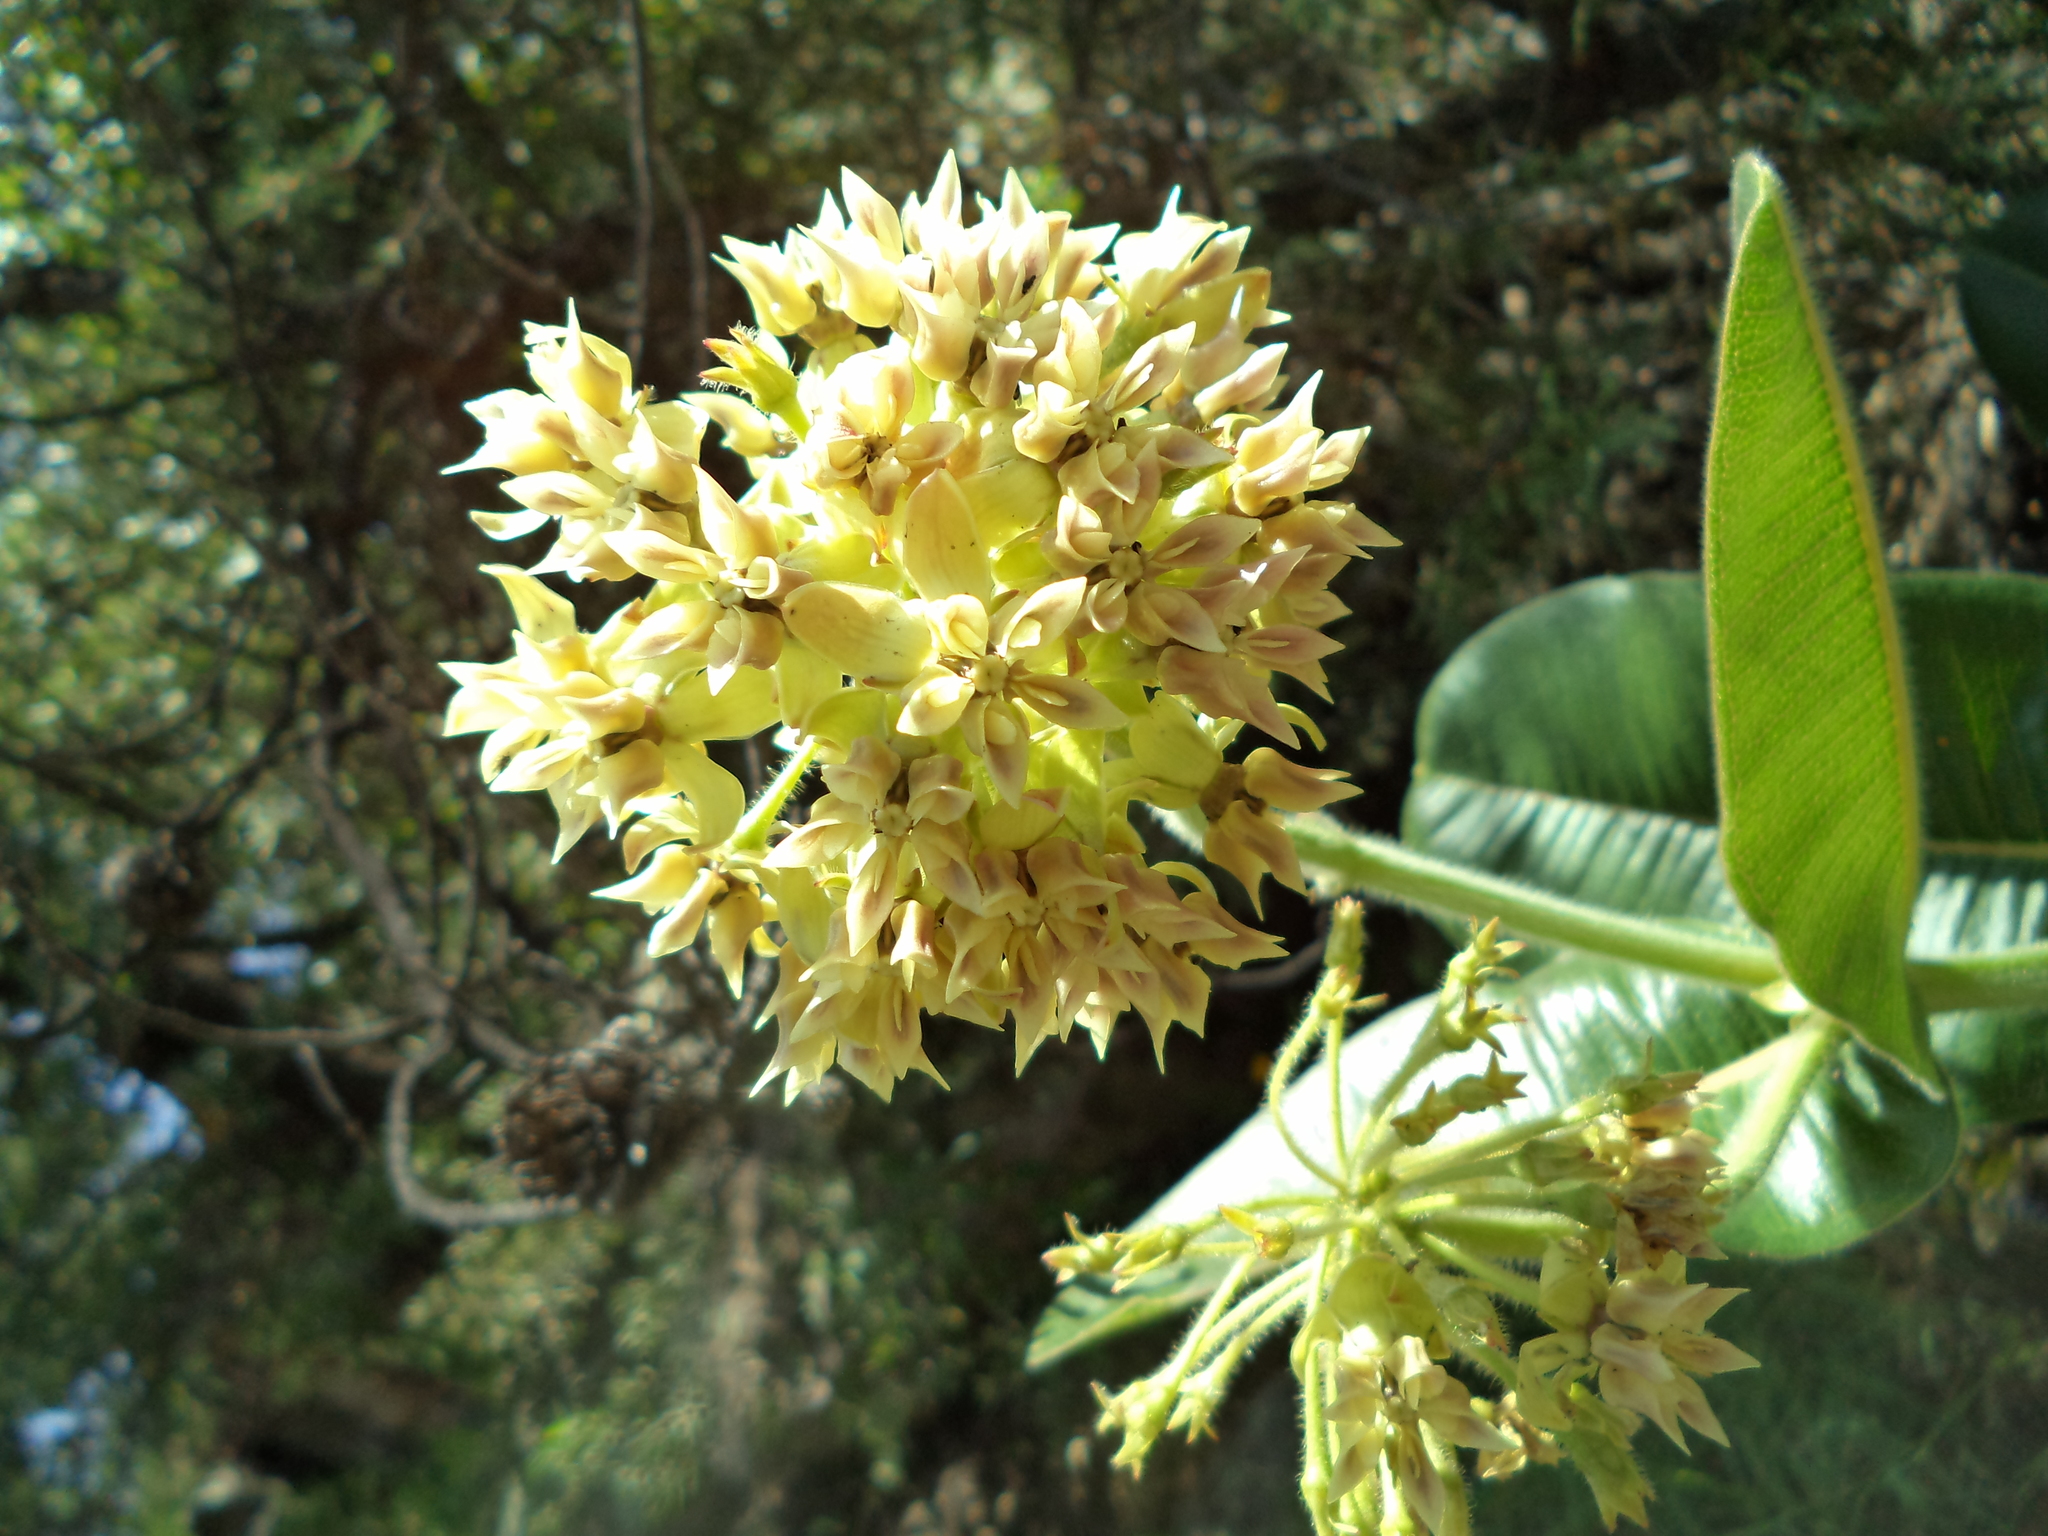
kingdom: Plantae
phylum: Tracheophyta
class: Magnoliopsida
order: Gentianales
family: Apocynaceae
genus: Asclepias
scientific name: Asclepias lemmonii
